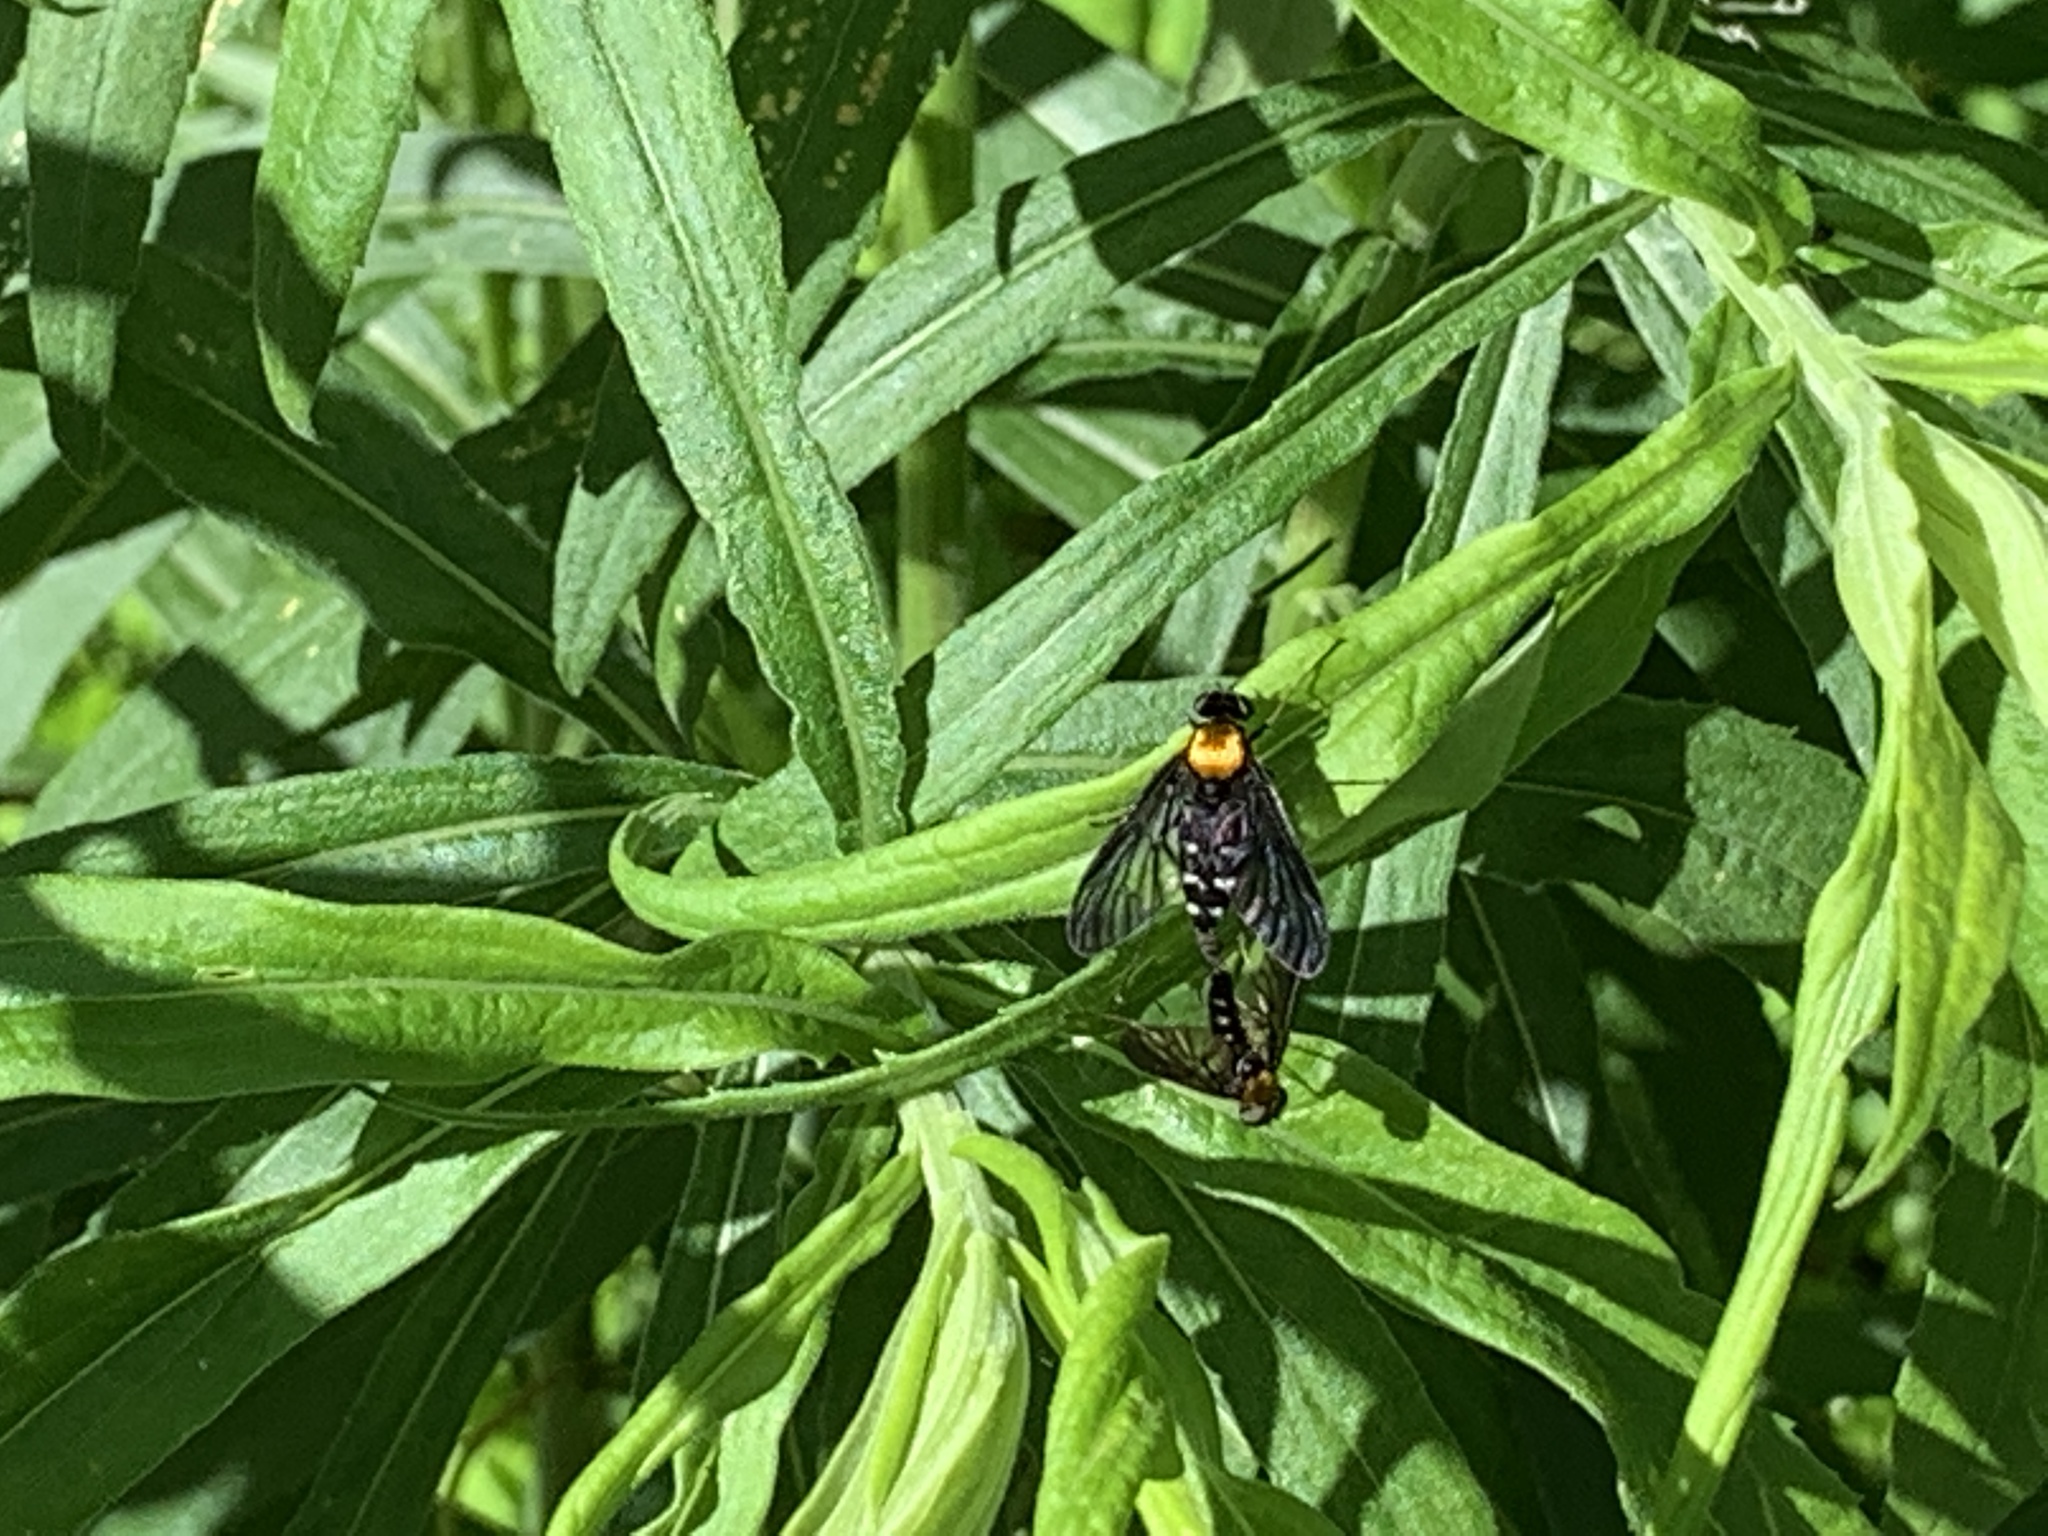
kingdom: Animalia
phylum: Arthropoda
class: Insecta
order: Diptera
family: Rhagionidae
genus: Chrysopilus
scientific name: Chrysopilus thoracicus
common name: Golden-backed snipe fly
